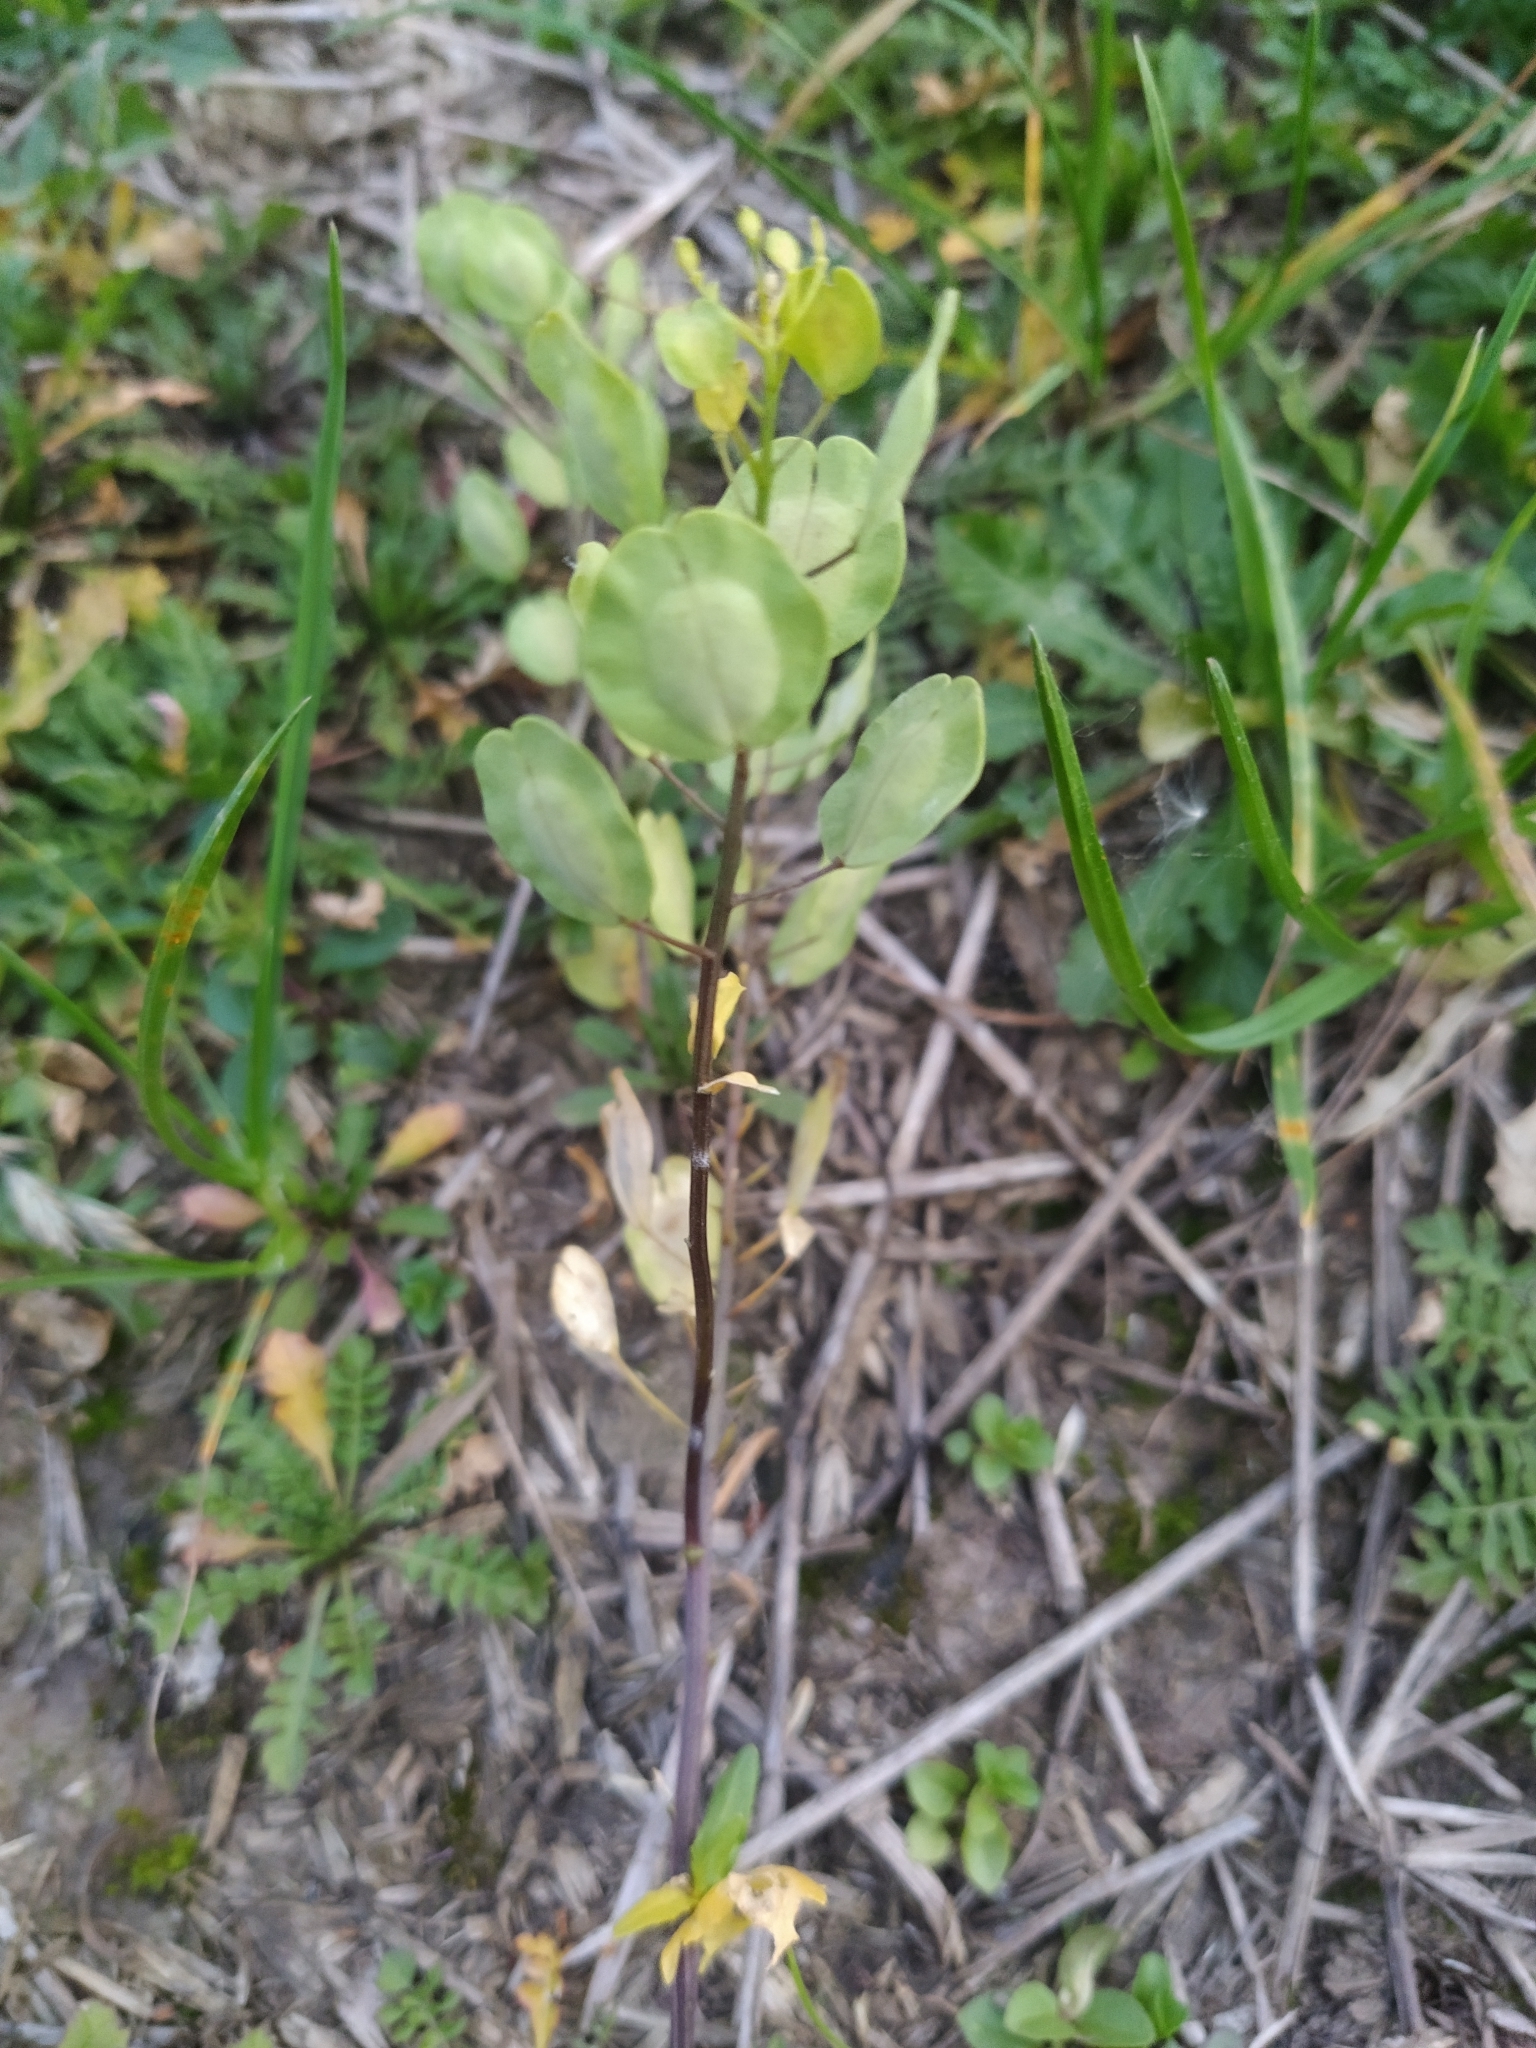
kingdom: Plantae
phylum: Tracheophyta
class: Magnoliopsida
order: Brassicales
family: Brassicaceae
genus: Thlaspi
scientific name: Thlaspi arvense
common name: Field pennycress
